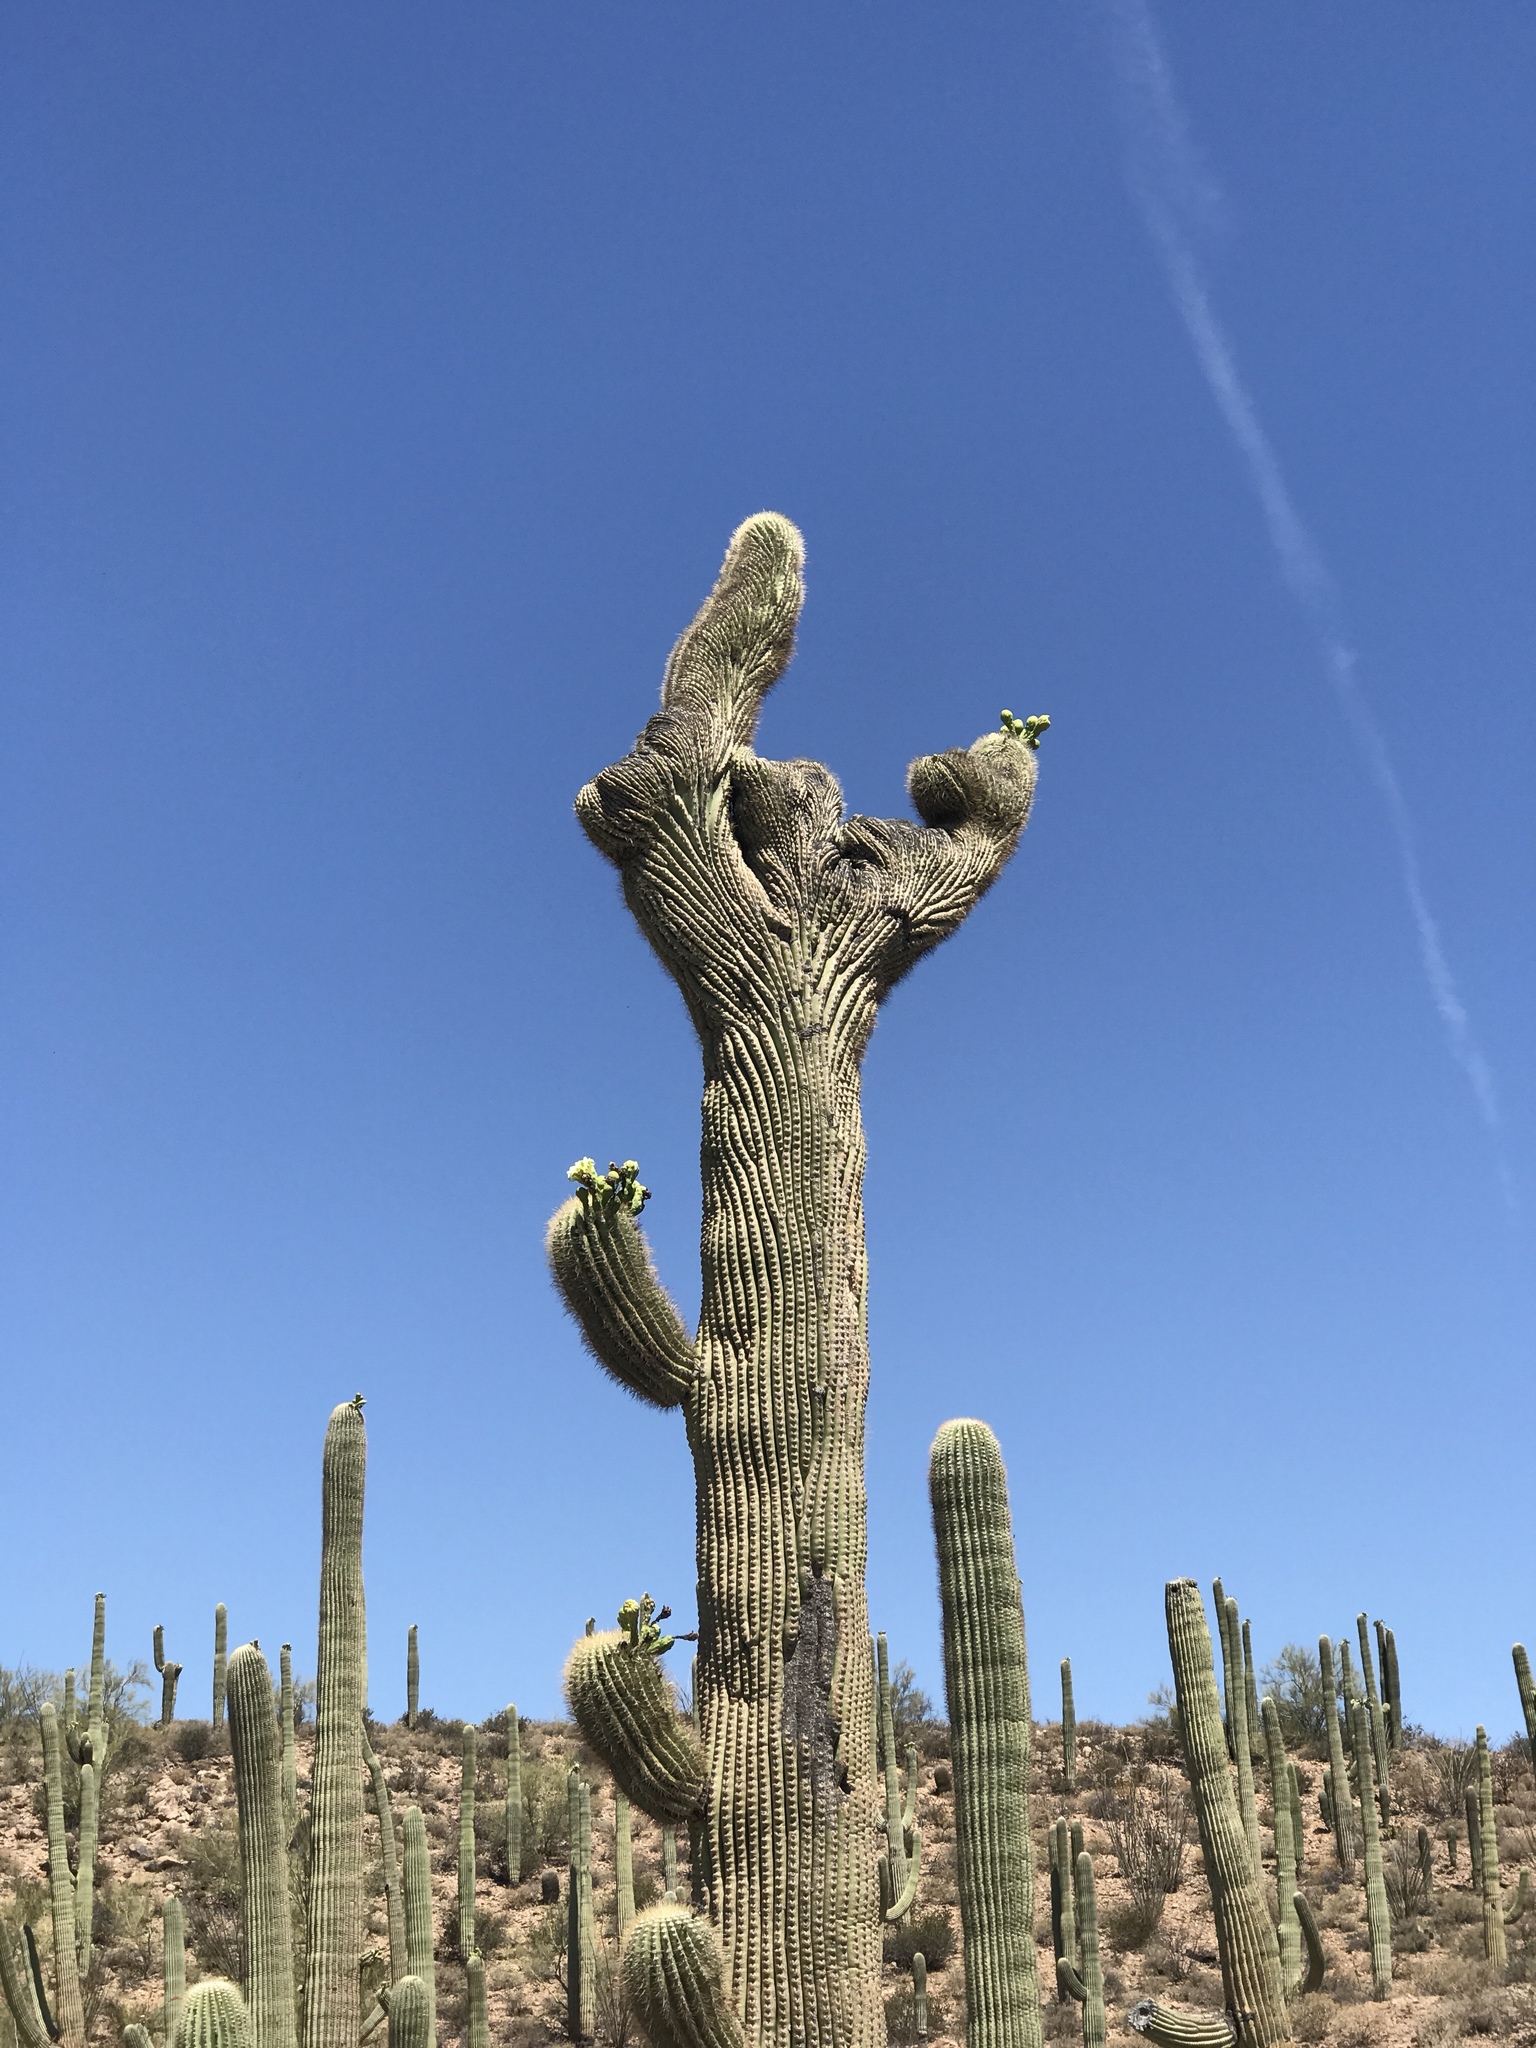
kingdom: Plantae
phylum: Tracheophyta
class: Magnoliopsida
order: Caryophyllales
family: Cactaceae
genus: Carnegiea
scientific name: Carnegiea gigantea
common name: Saguaro
